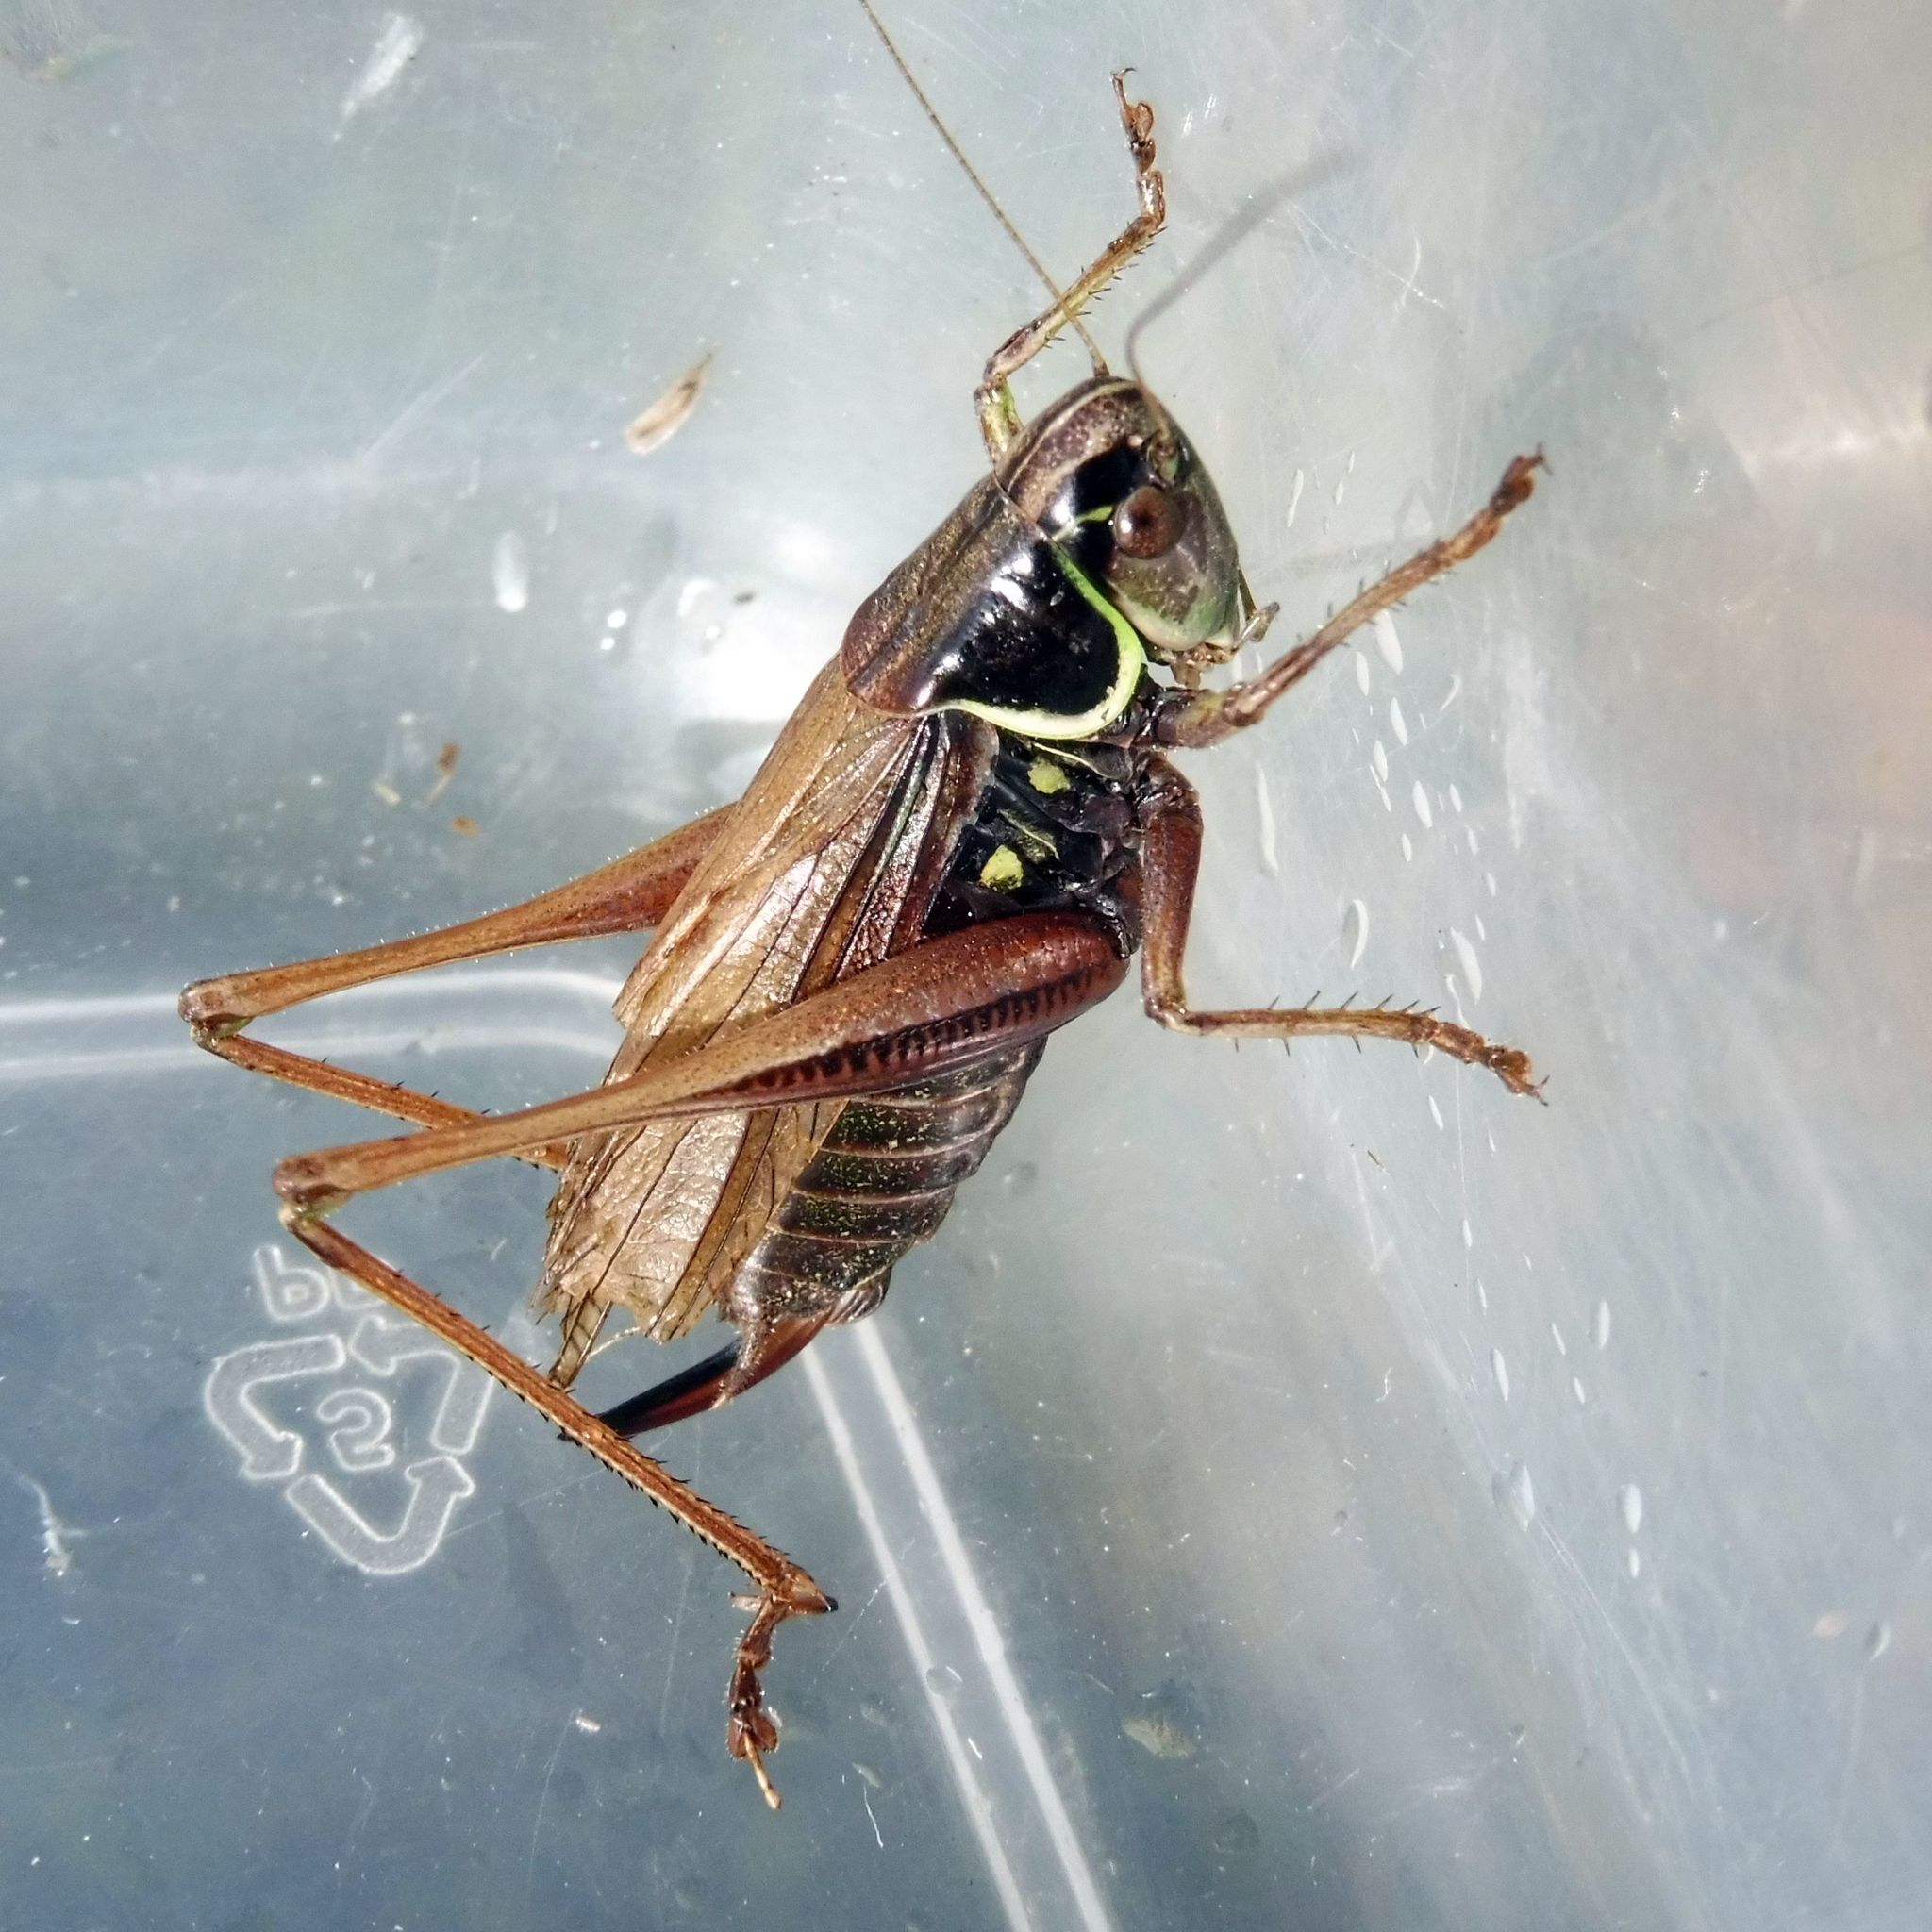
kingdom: Animalia
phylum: Arthropoda
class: Insecta
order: Orthoptera
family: Tettigoniidae
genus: Roeseliana
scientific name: Roeseliana roeselii
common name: Roesel's bush cricket
